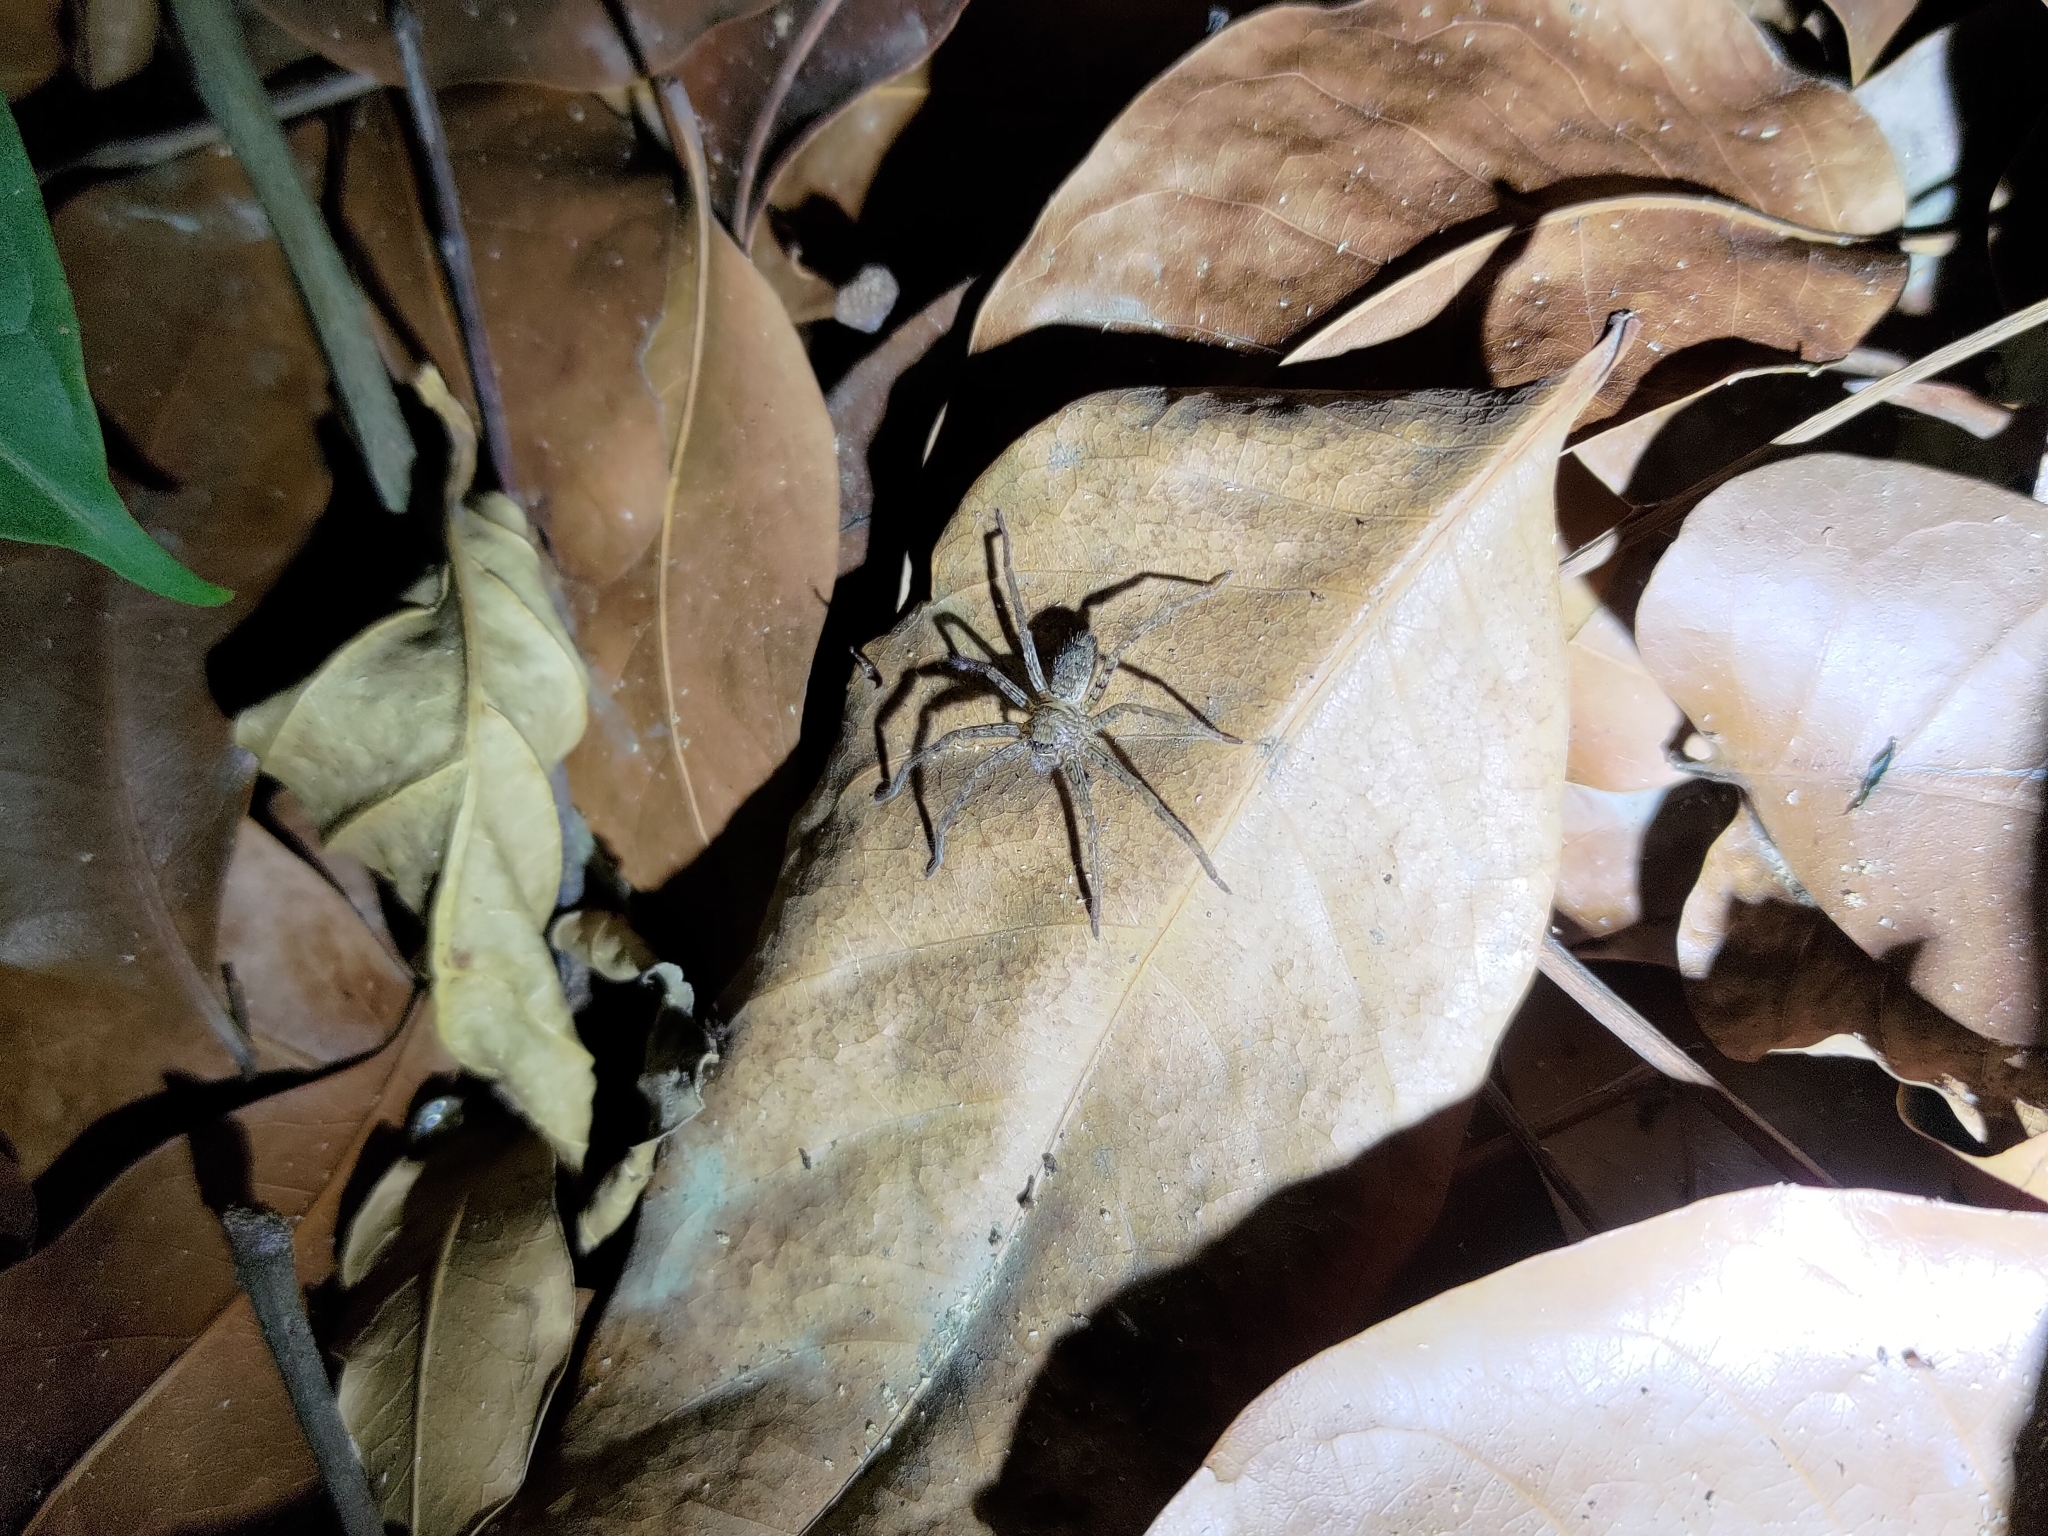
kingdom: Animalia
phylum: Arthropoda
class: Arachnida
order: Araneae
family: Sparassidae
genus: Heteropoda
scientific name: Heteropoda venatoria
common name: Huntsman spider
